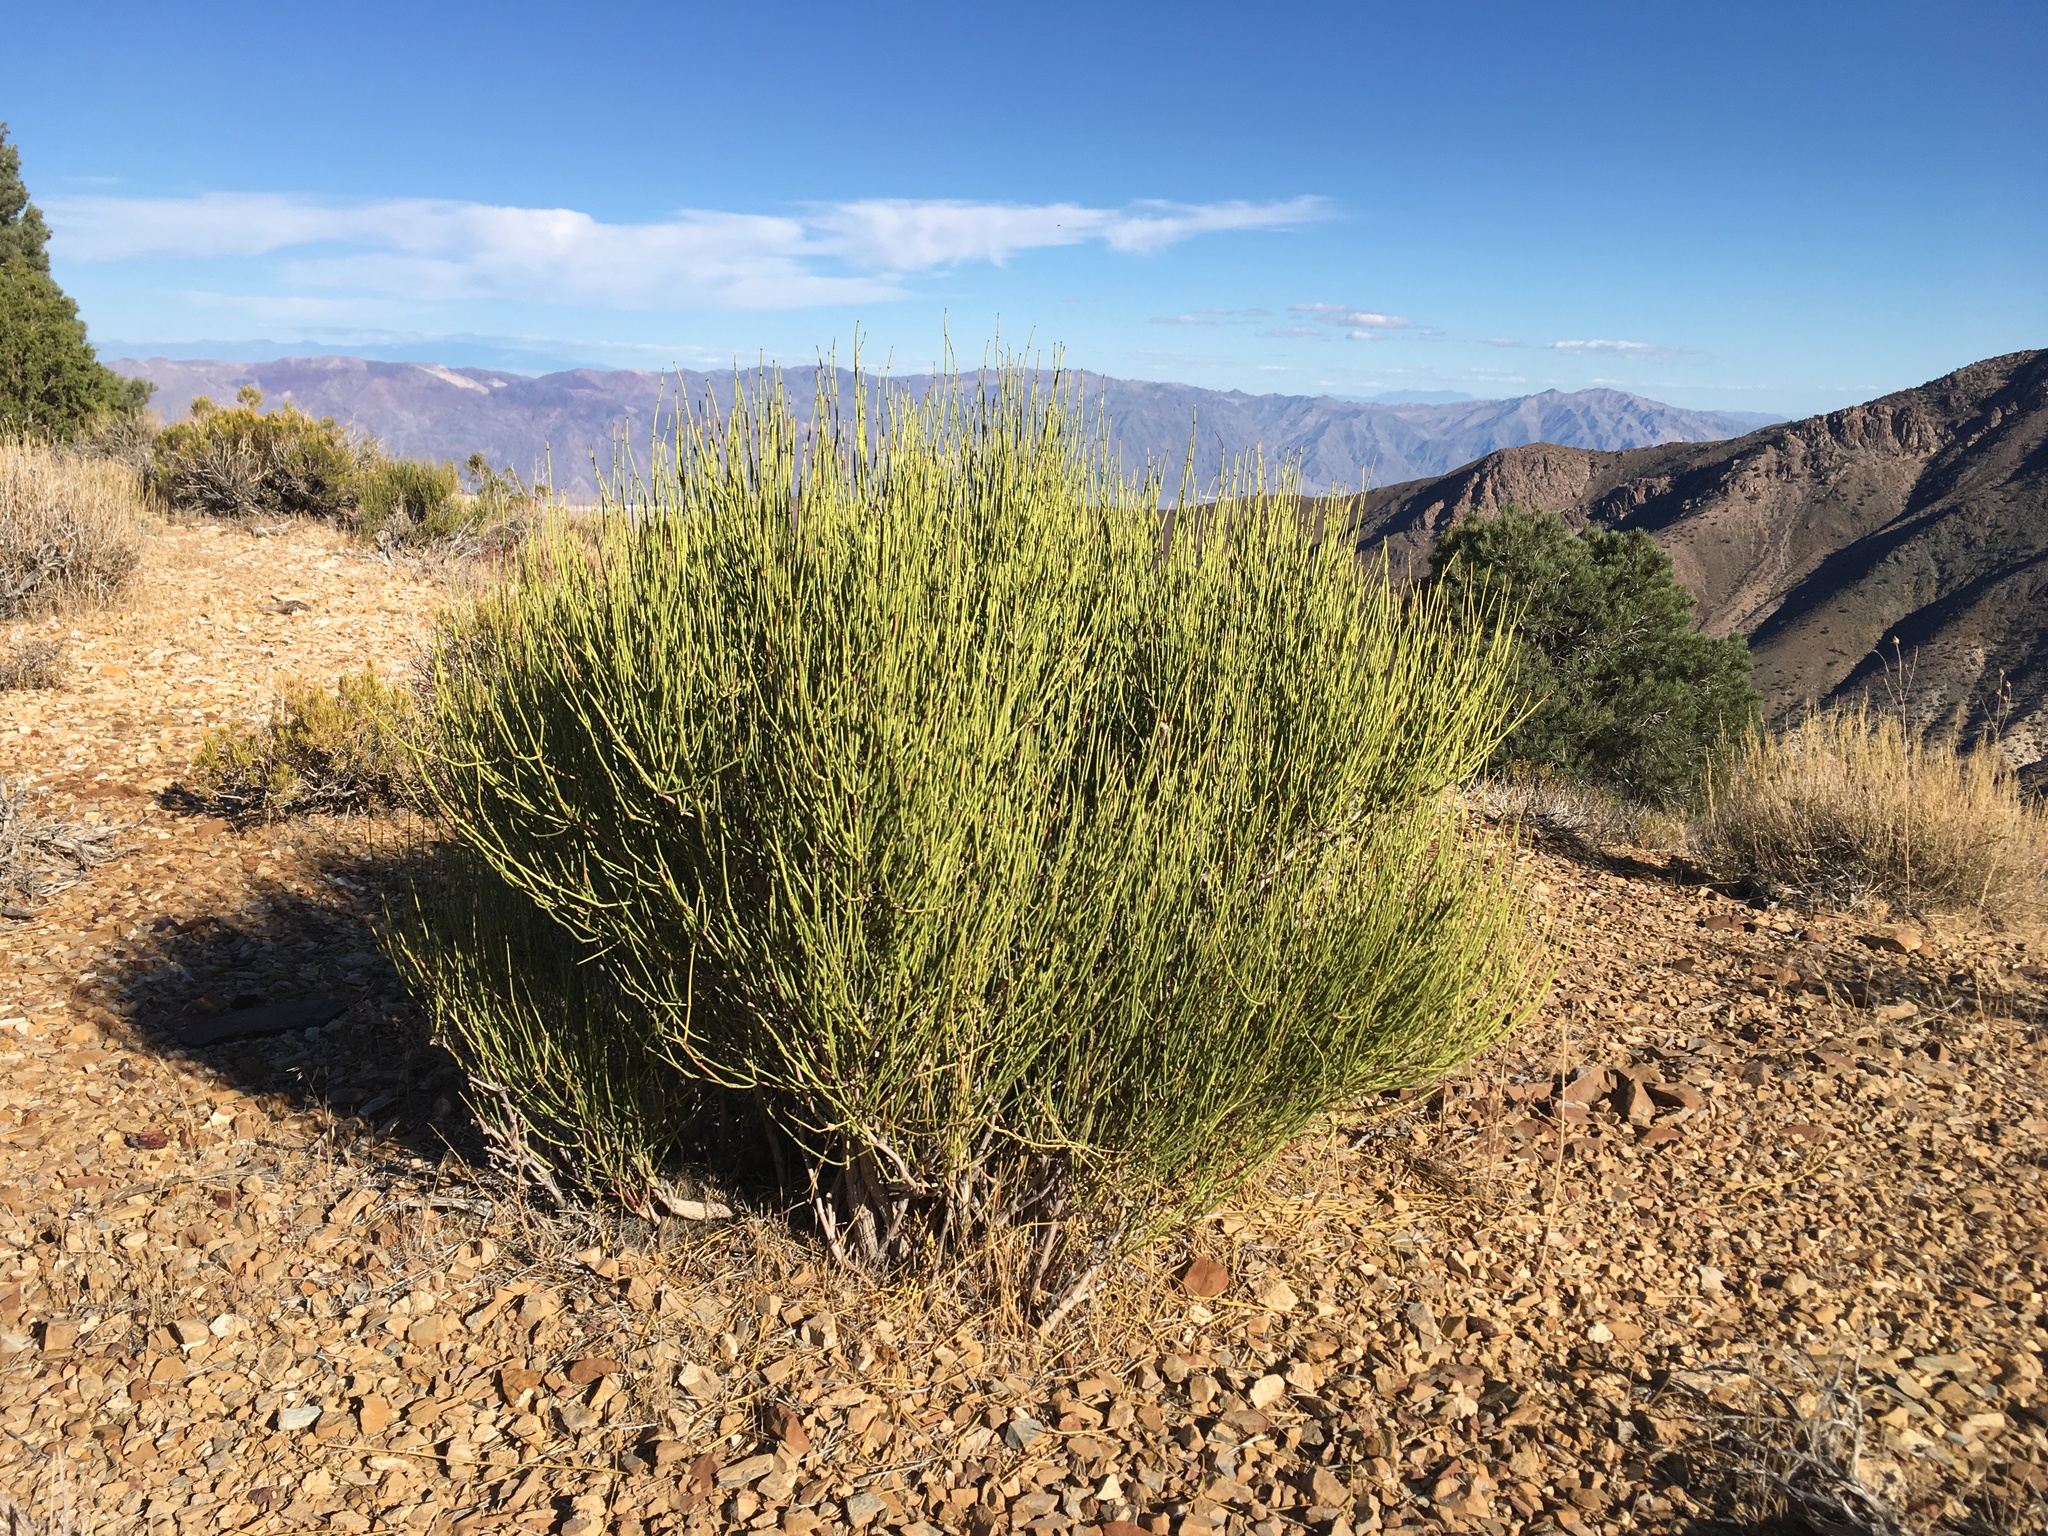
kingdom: Plantae
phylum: Tracheophyta
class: Gnetopsida
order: Ephedrales
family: Ephedraceae
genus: Ephedra
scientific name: Ephedra viridis
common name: Green ephedra
